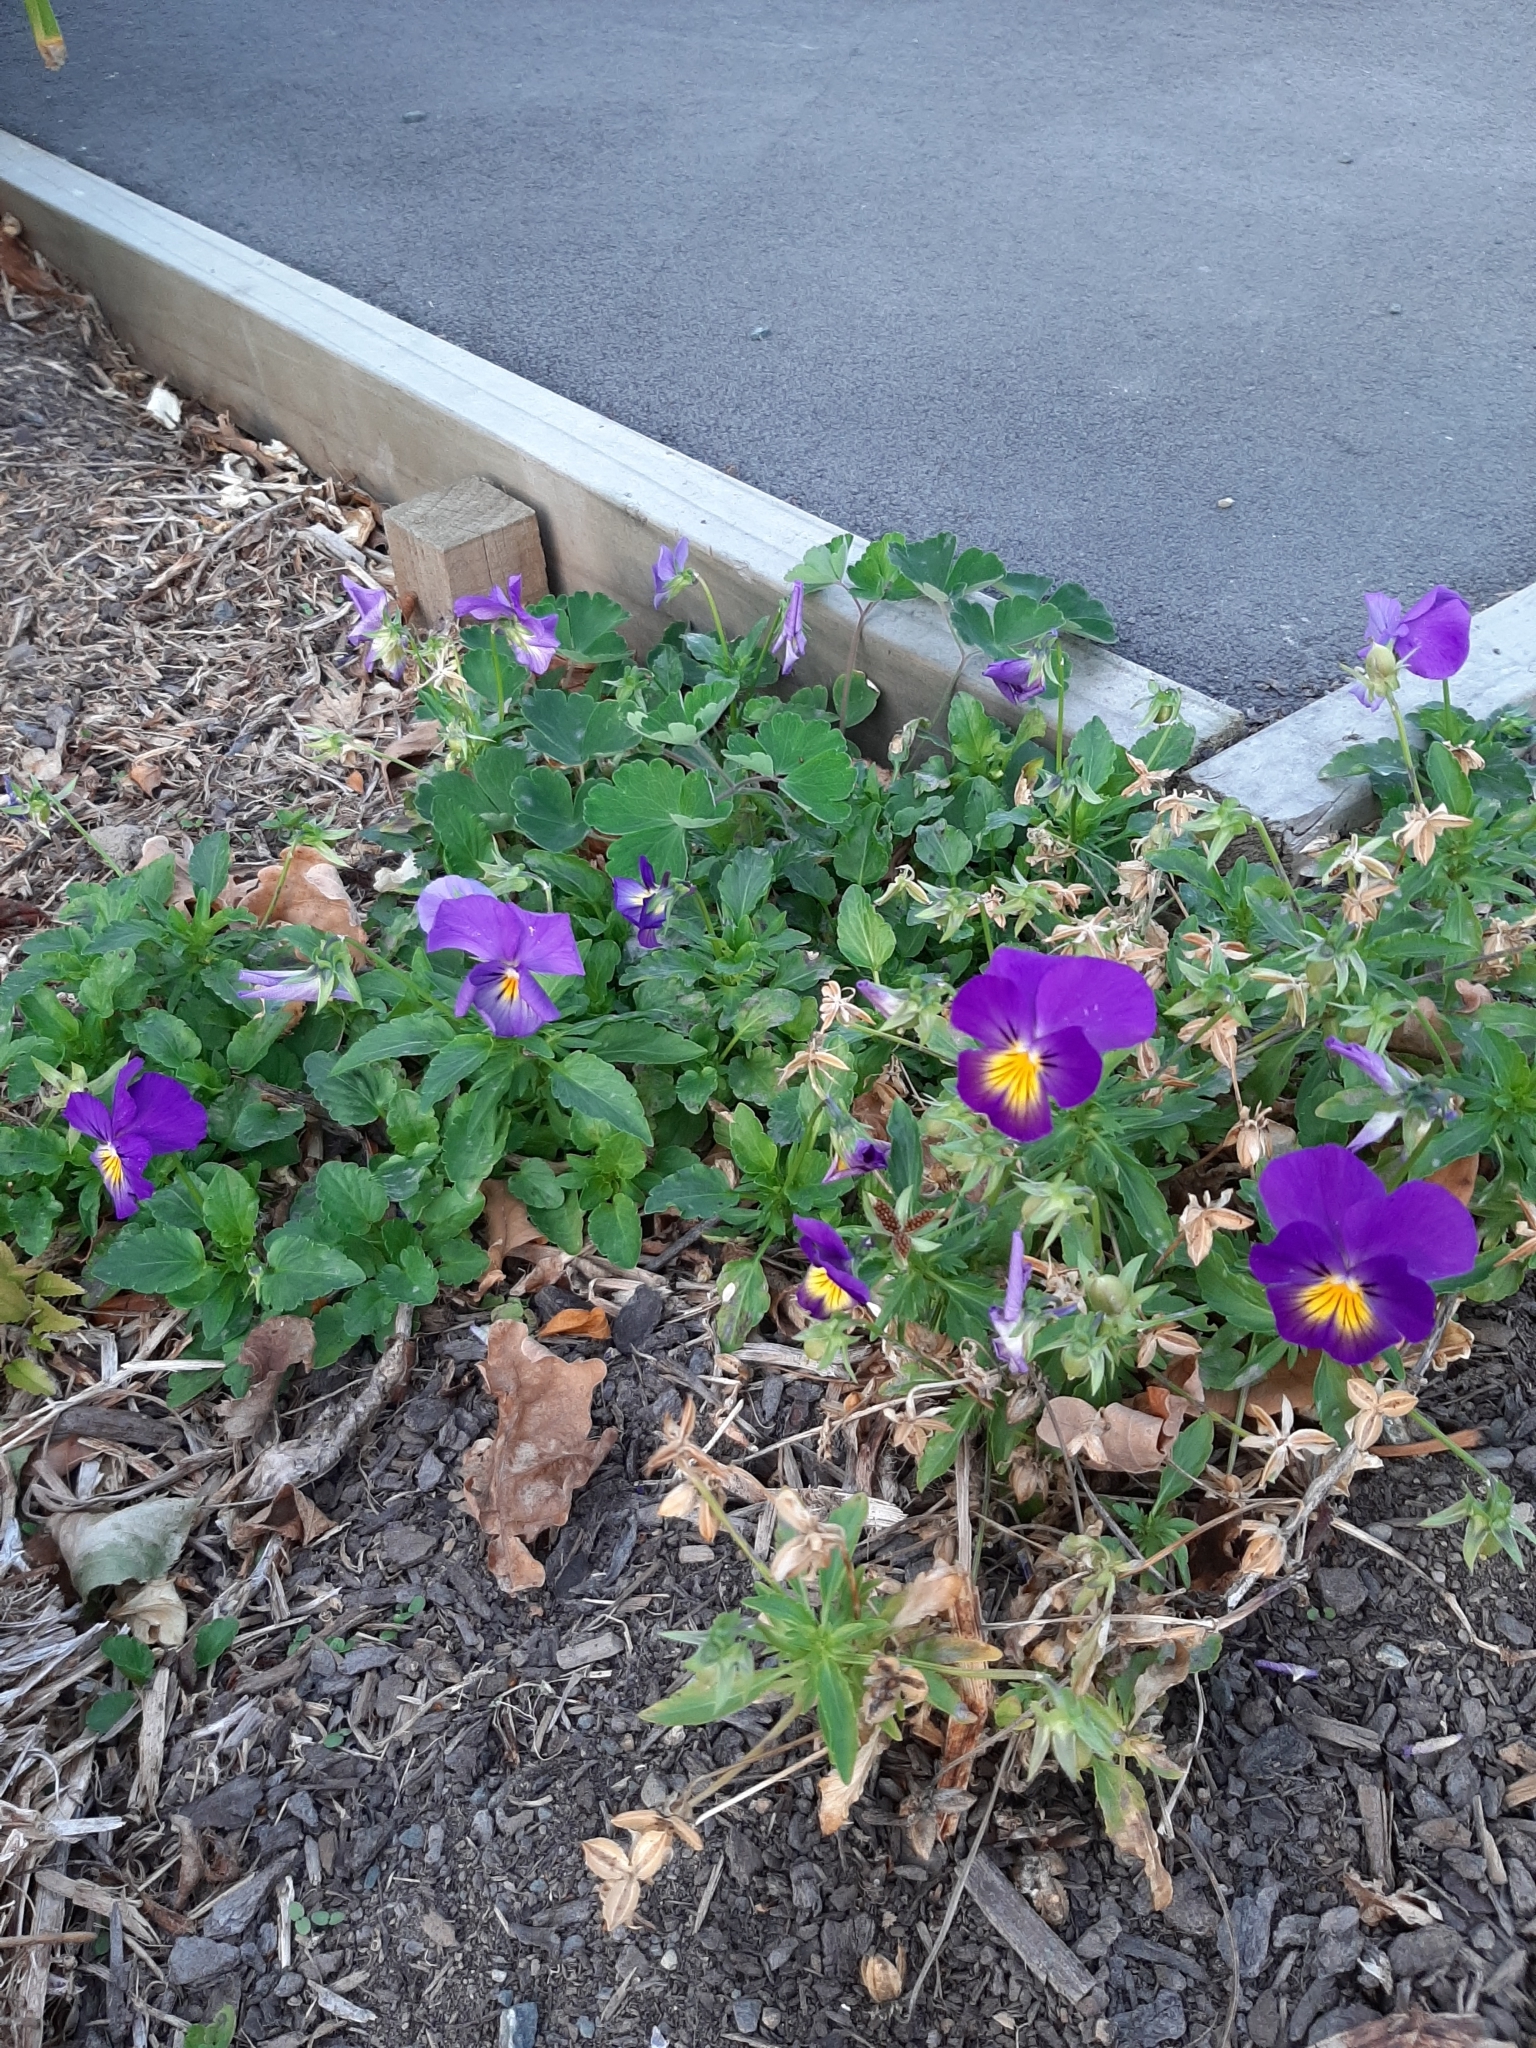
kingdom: Plantae
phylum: Tracheophyta
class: Magnoliopsida
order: Malpighiales
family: Violaceae
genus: Viola
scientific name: Viola wittrockiana
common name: Garden pansy
